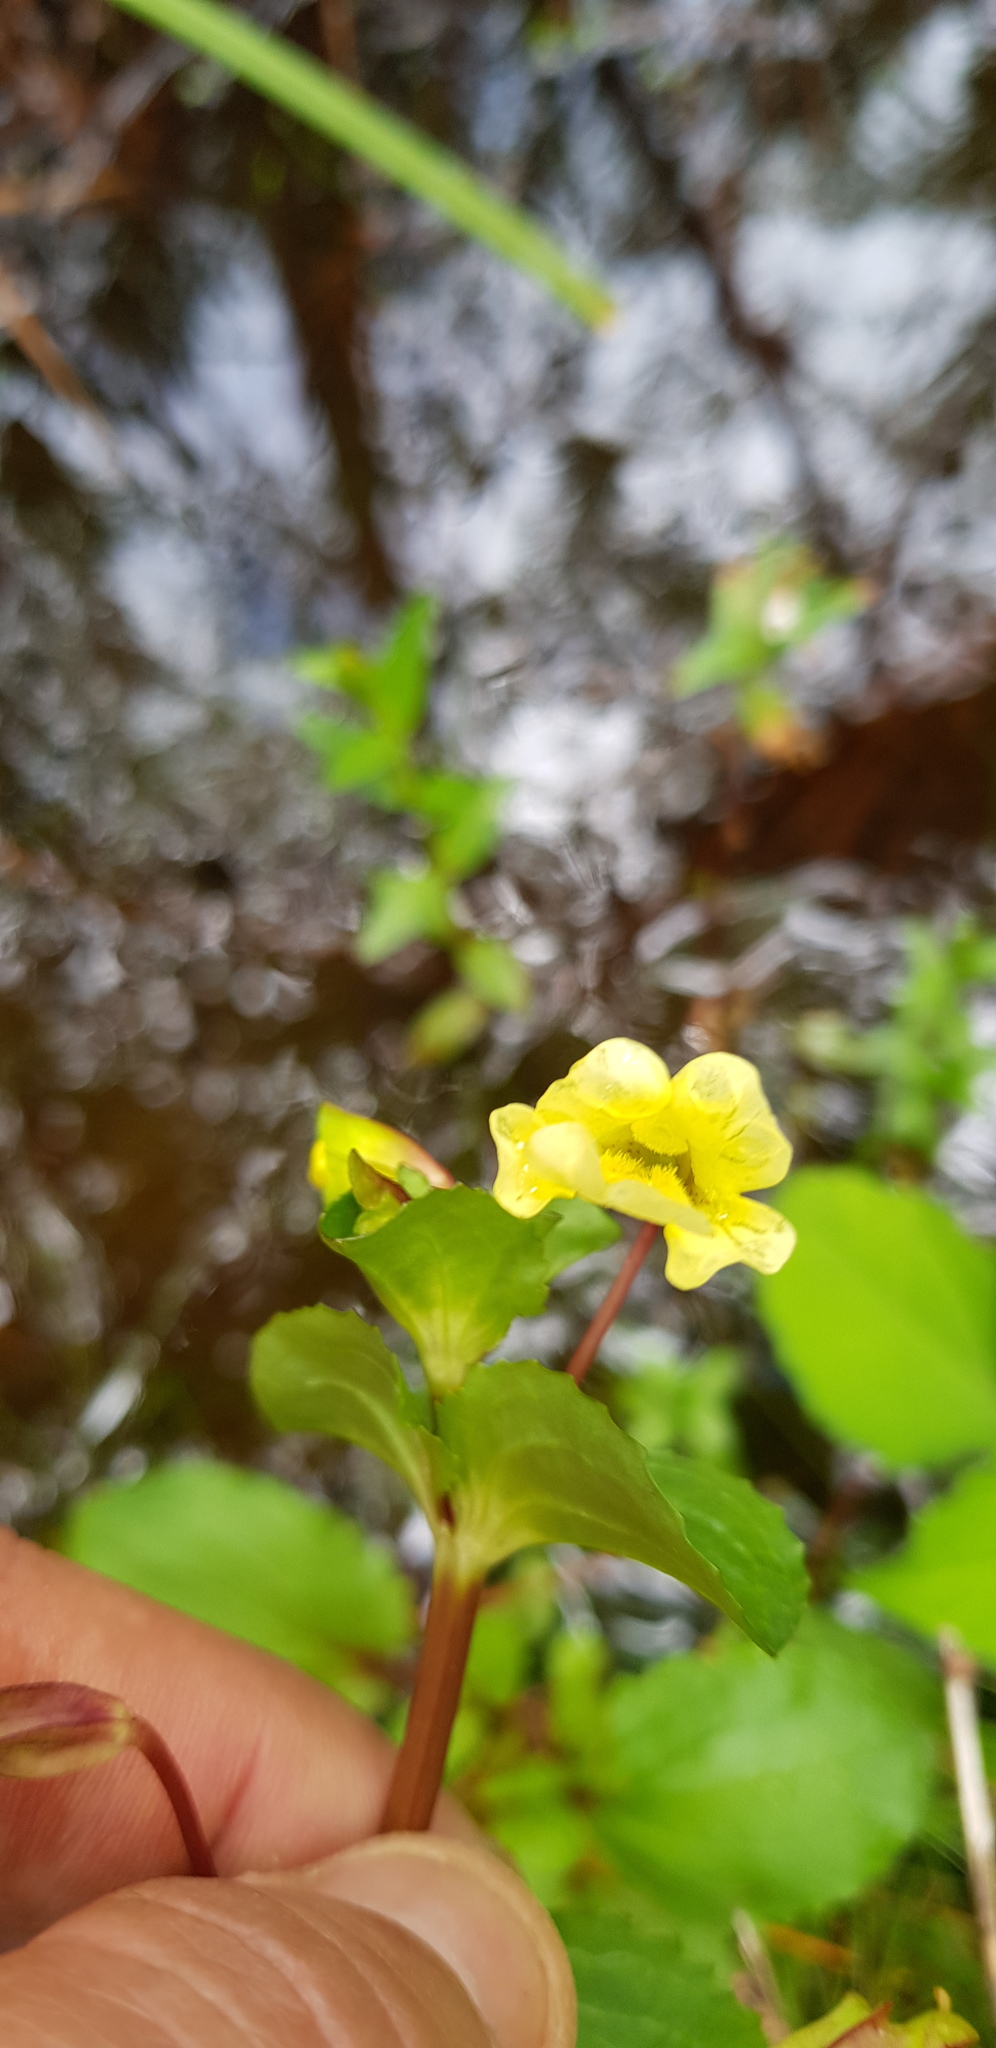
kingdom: Plantae
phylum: Tracheophyta
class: Magnoliopsida
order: Lamiales
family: Plantaginaceae
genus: Mecardonia
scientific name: Mecardonia procumbens
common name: Baby jump-up
